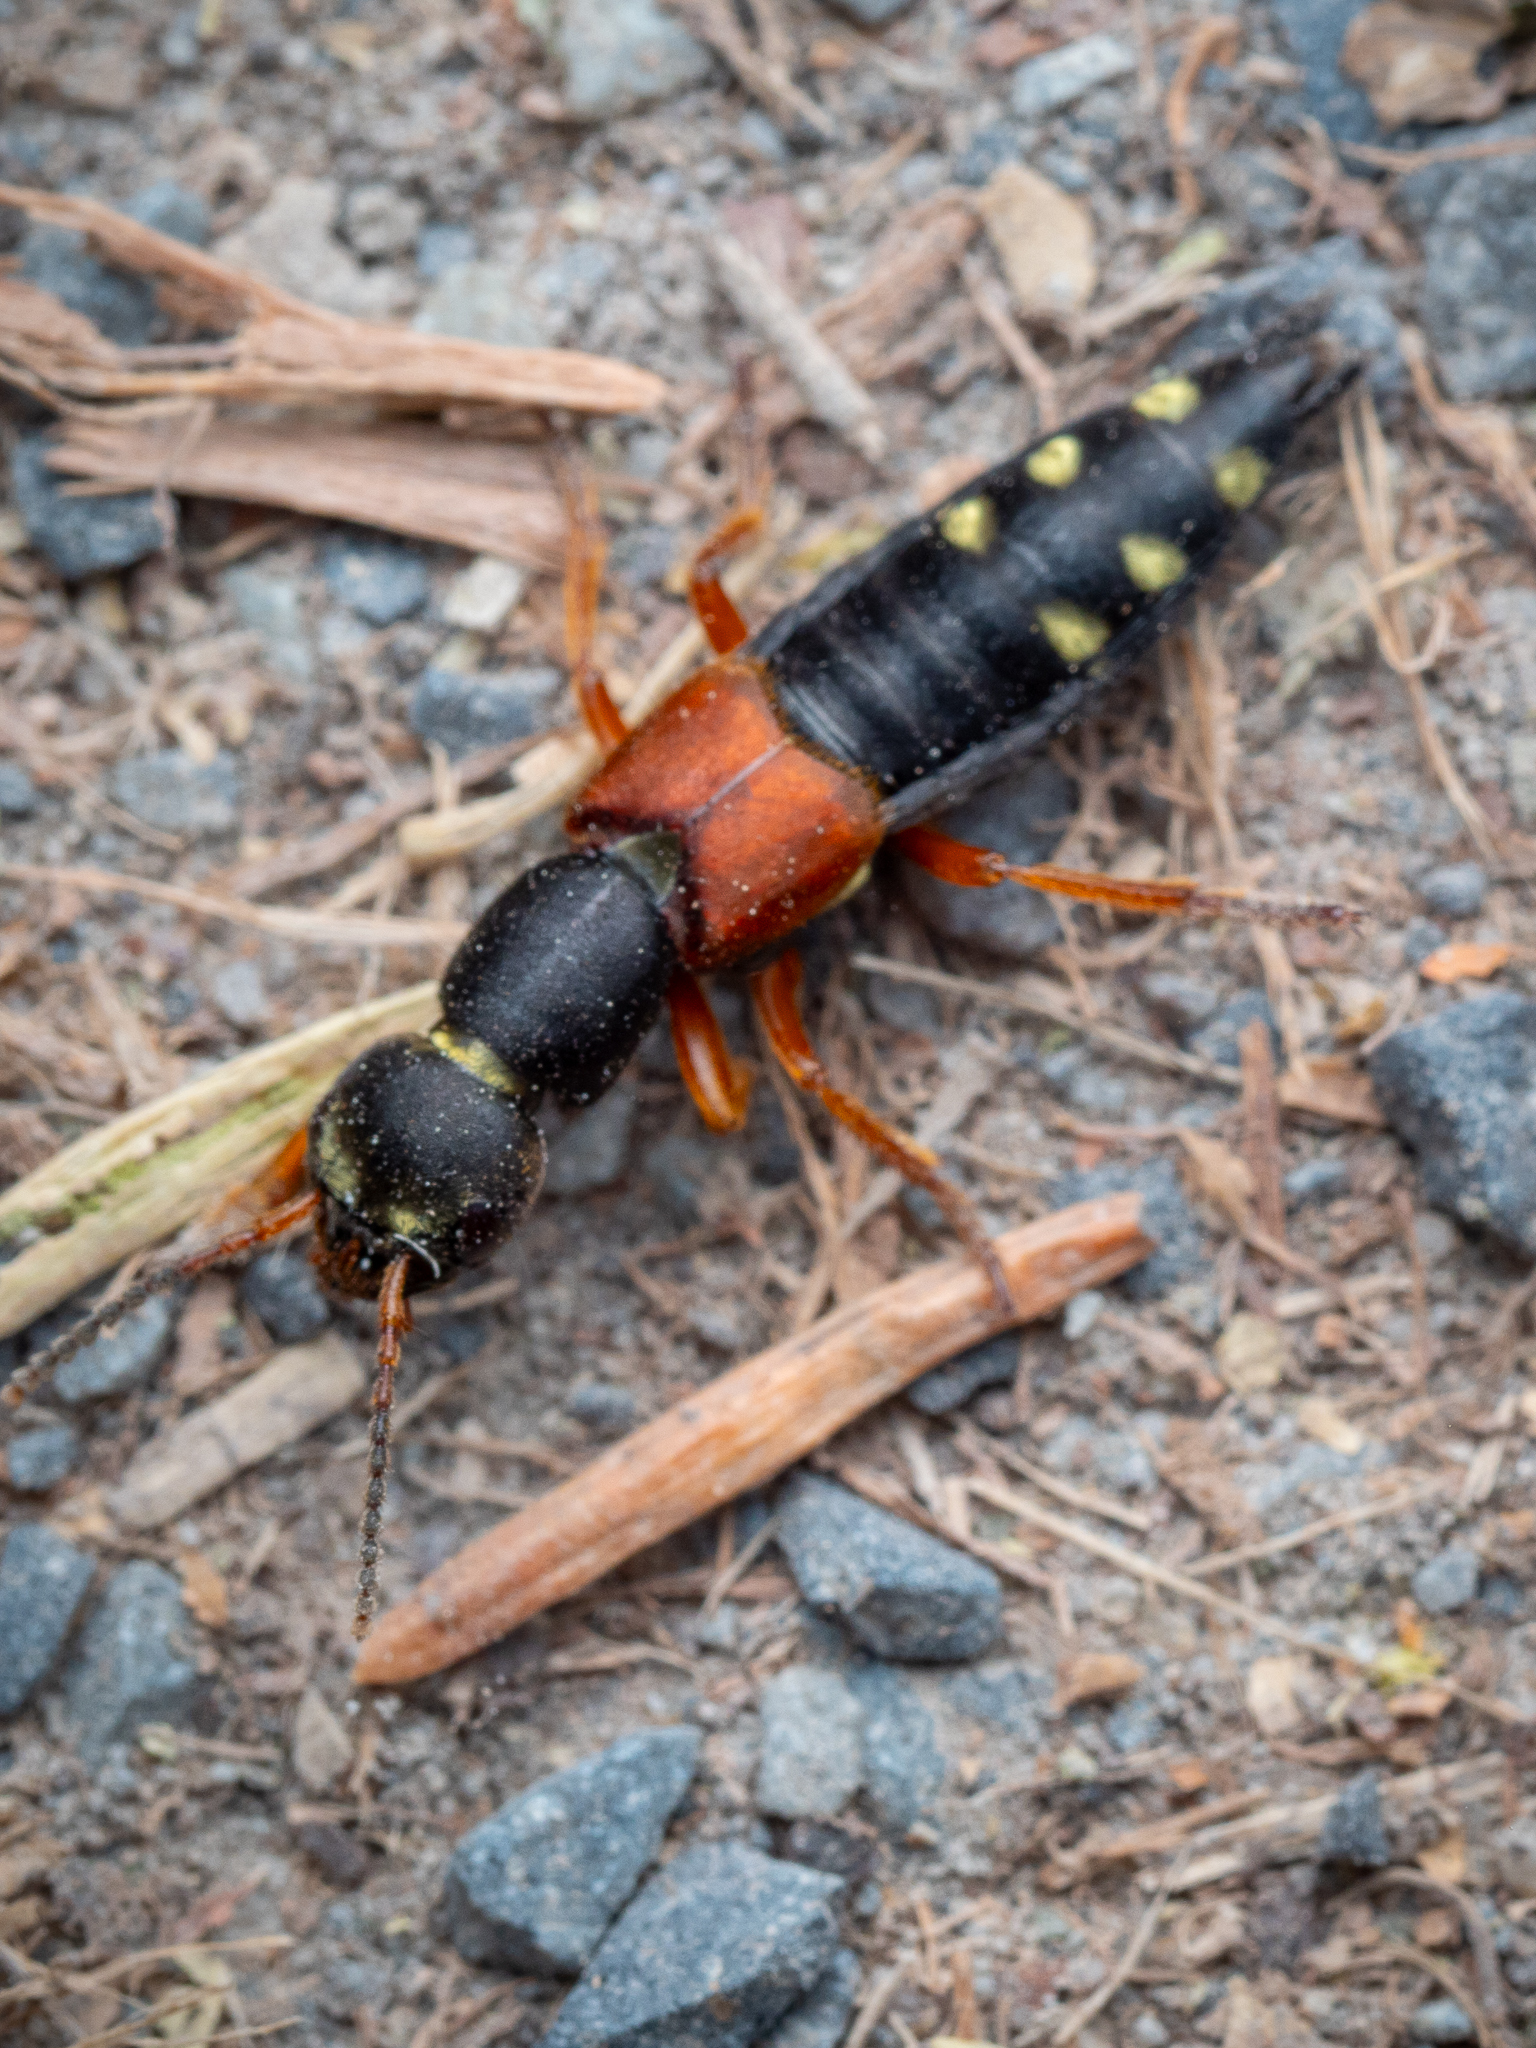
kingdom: Animalia
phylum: Arthropoda
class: Insecta
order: Coleoptera
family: Staphylinidae
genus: Staphylinus
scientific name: Staphylinus erythropterus
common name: Staph beetle
